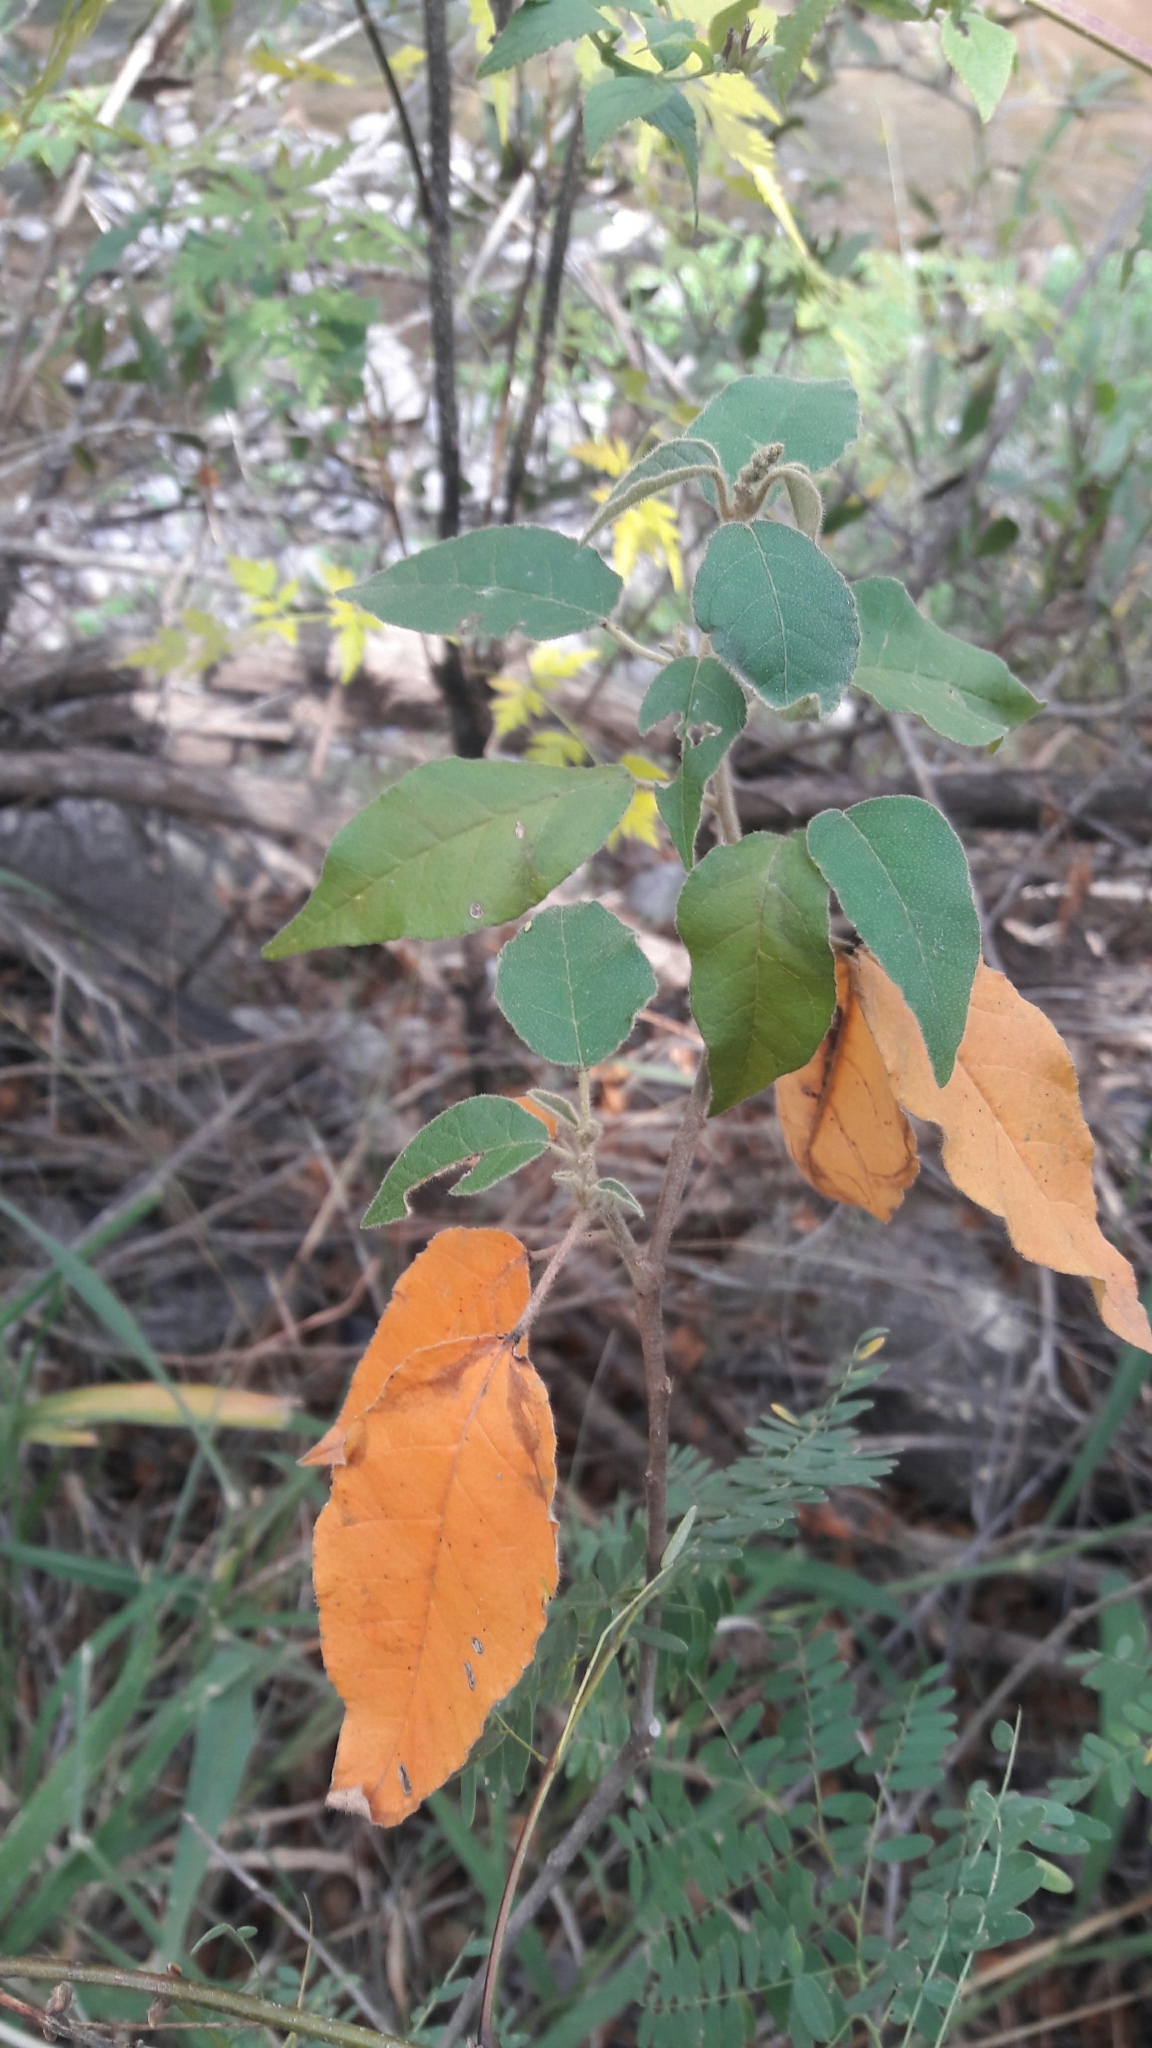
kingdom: Plantae
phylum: Tracheophyta
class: Magnoliopsida
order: Malpighiales
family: Euphorbiaceae
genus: Croton
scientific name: Croton lachnostachyus
